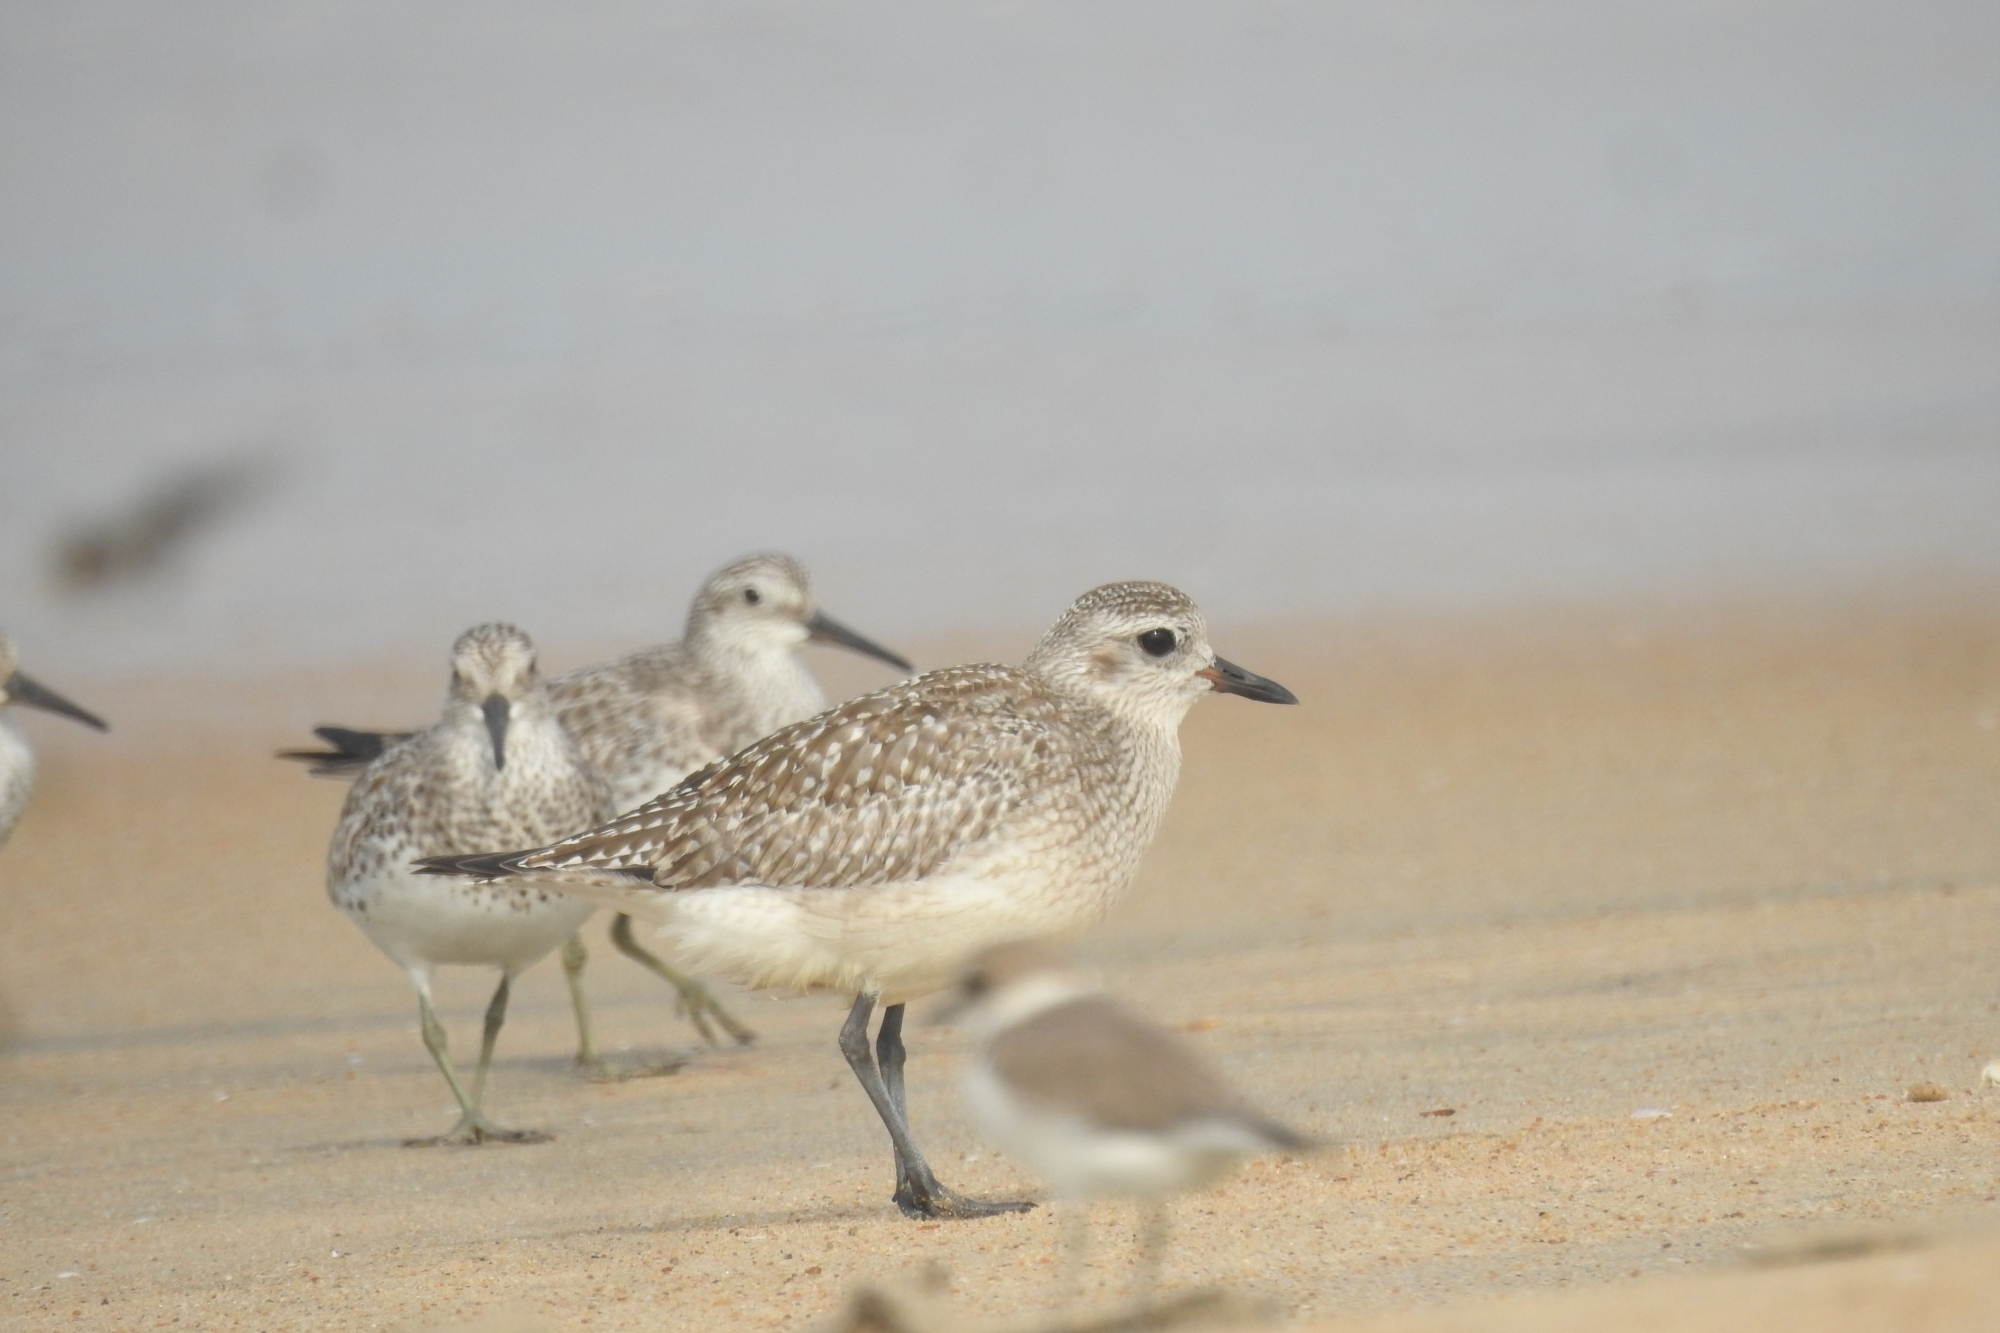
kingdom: Animalia
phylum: Chordata
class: Aves
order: Charadriiformes
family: Charadriidae
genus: Pluvialis
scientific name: Pluvialis squatarola
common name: Grey plover
